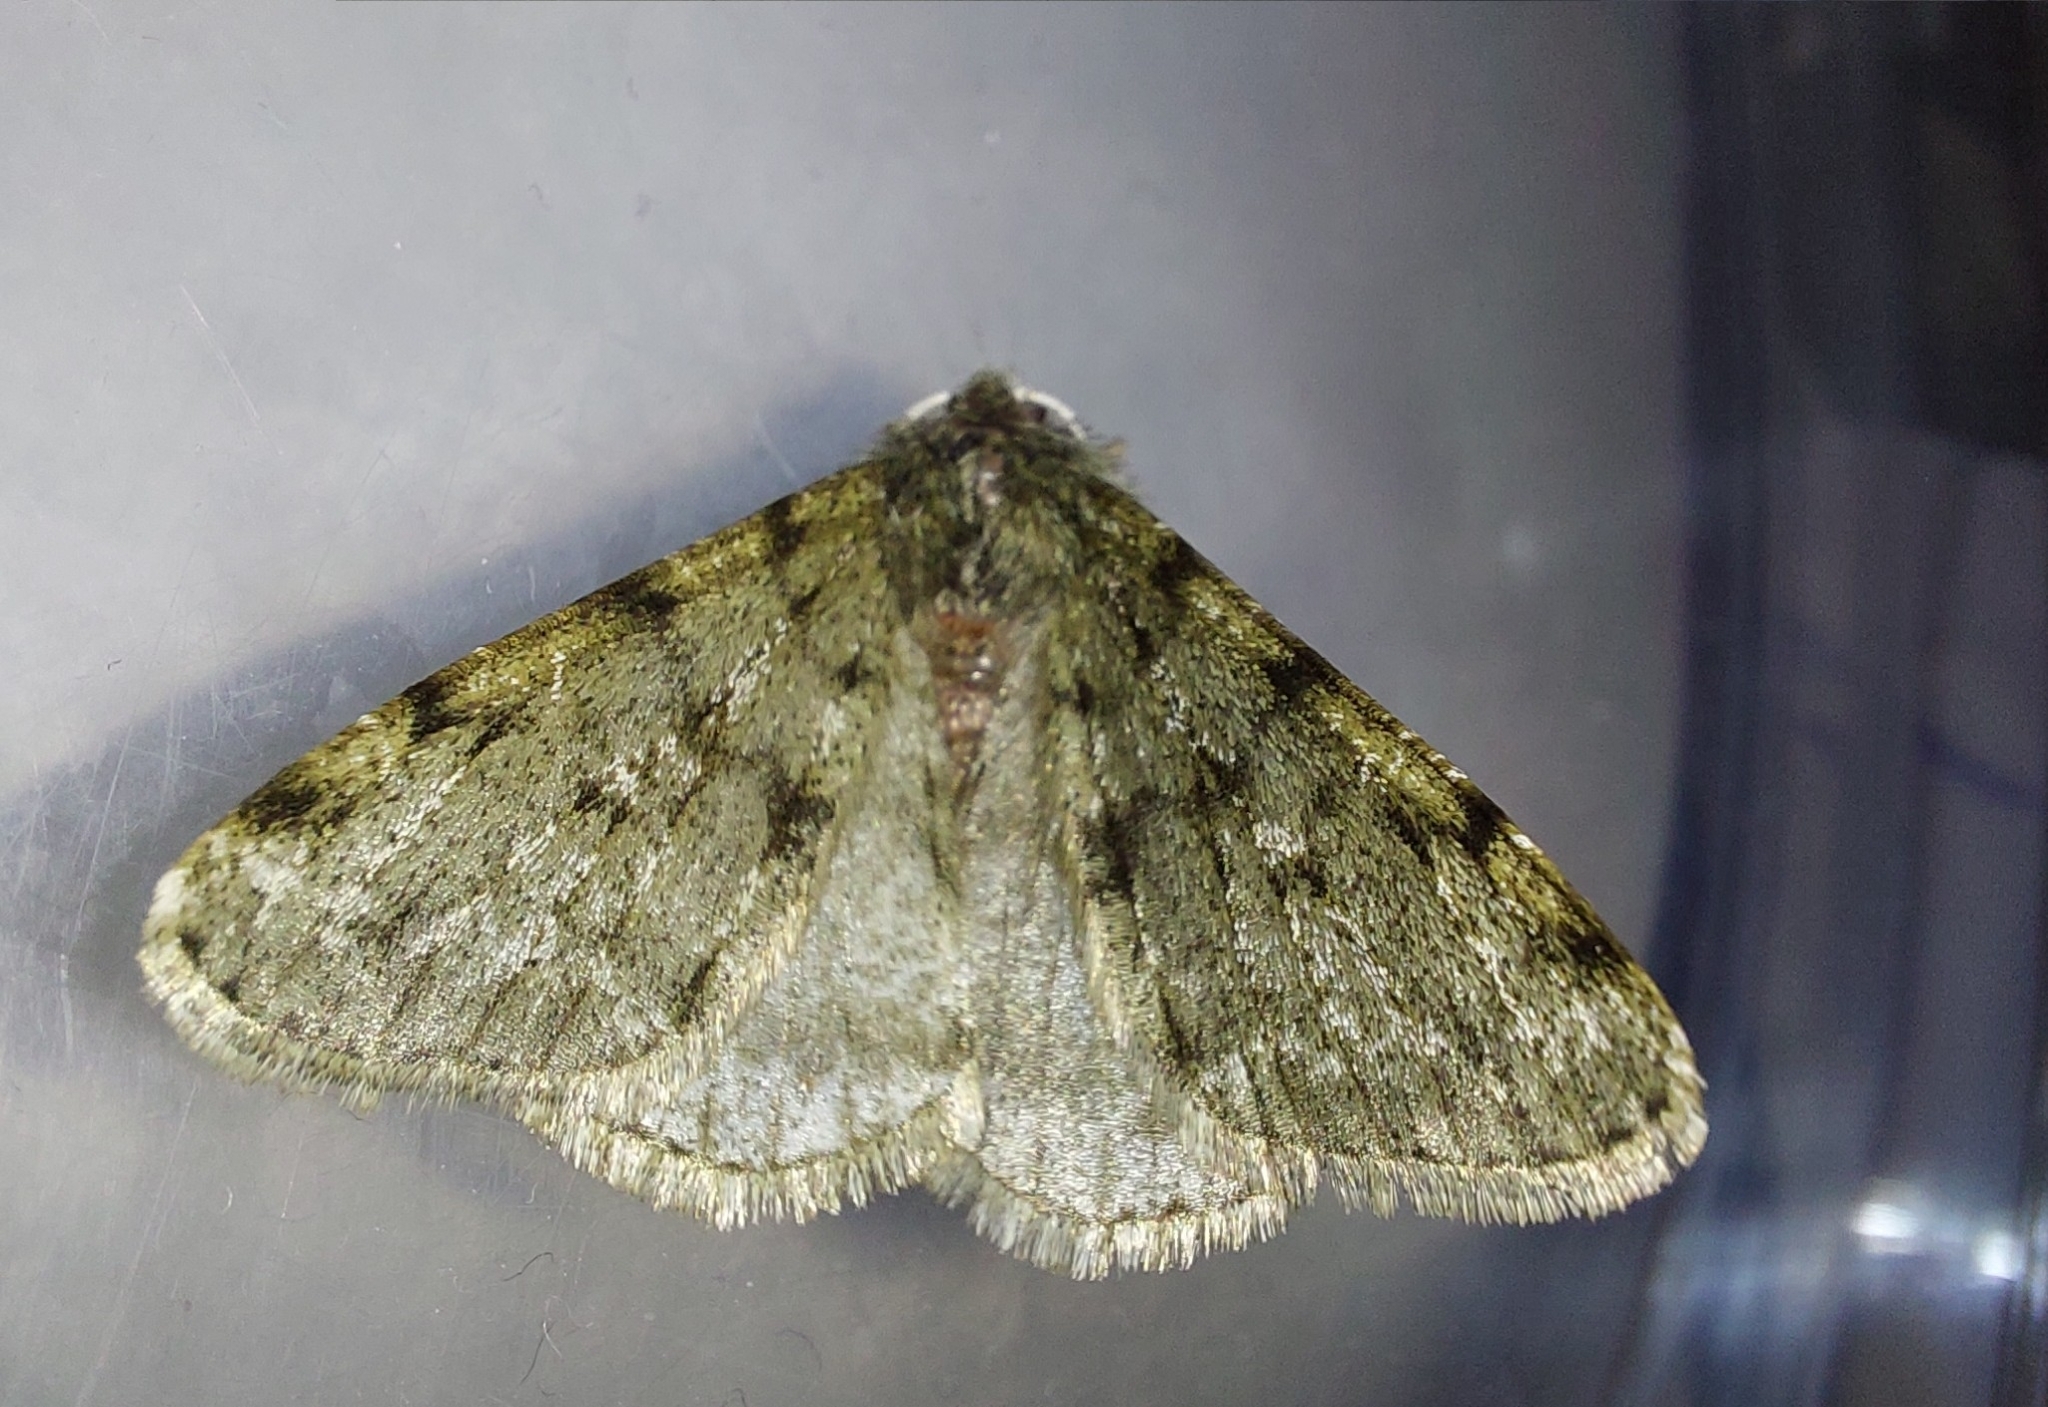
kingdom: Animalia
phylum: Arthropoda
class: Insecta
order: Lepidoptera
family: Geometridae
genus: Phigalia
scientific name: Phigalia pilosaria
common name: Pale brindled beauty
